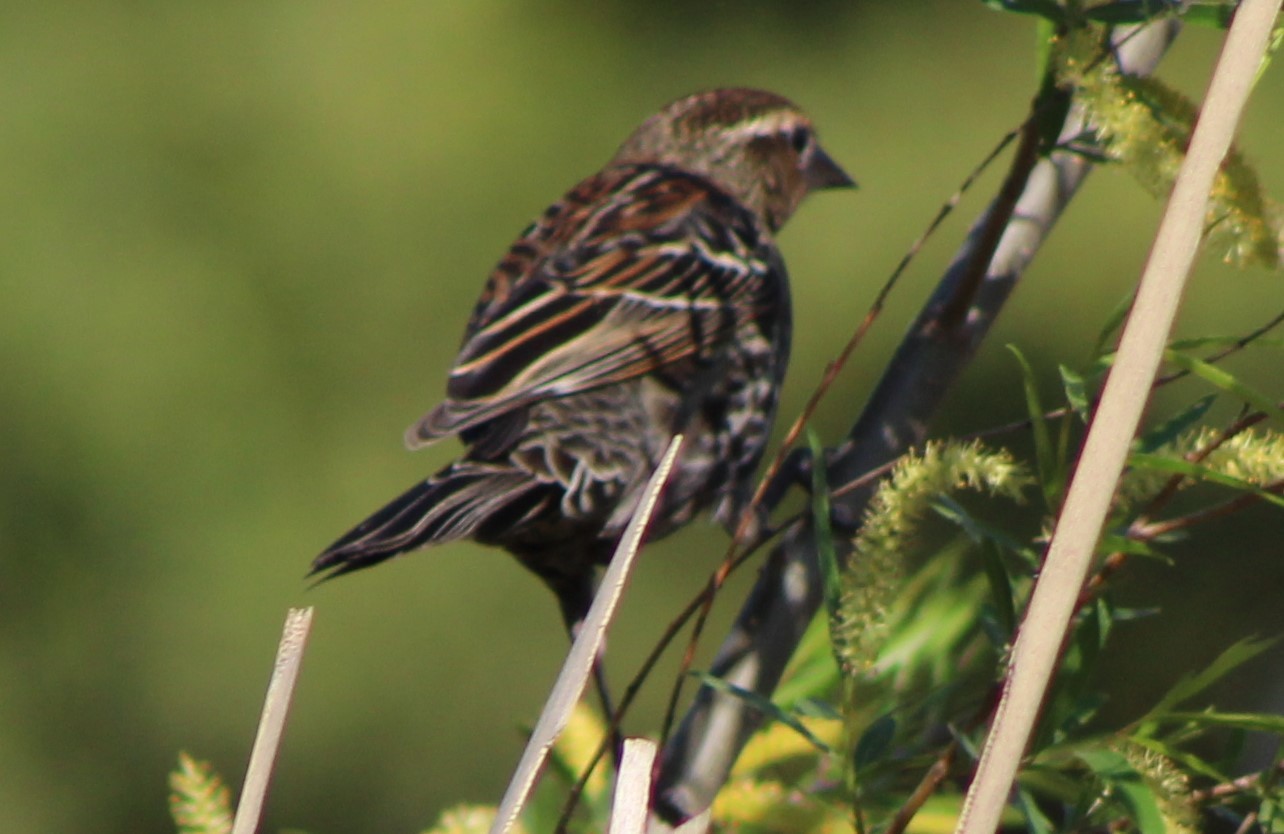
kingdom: Animalia
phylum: Chordata
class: Aves
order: Passeriformes
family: Icteridae
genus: Agelaius
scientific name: Agelaius phoeniceus
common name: Red-winged blackbird
